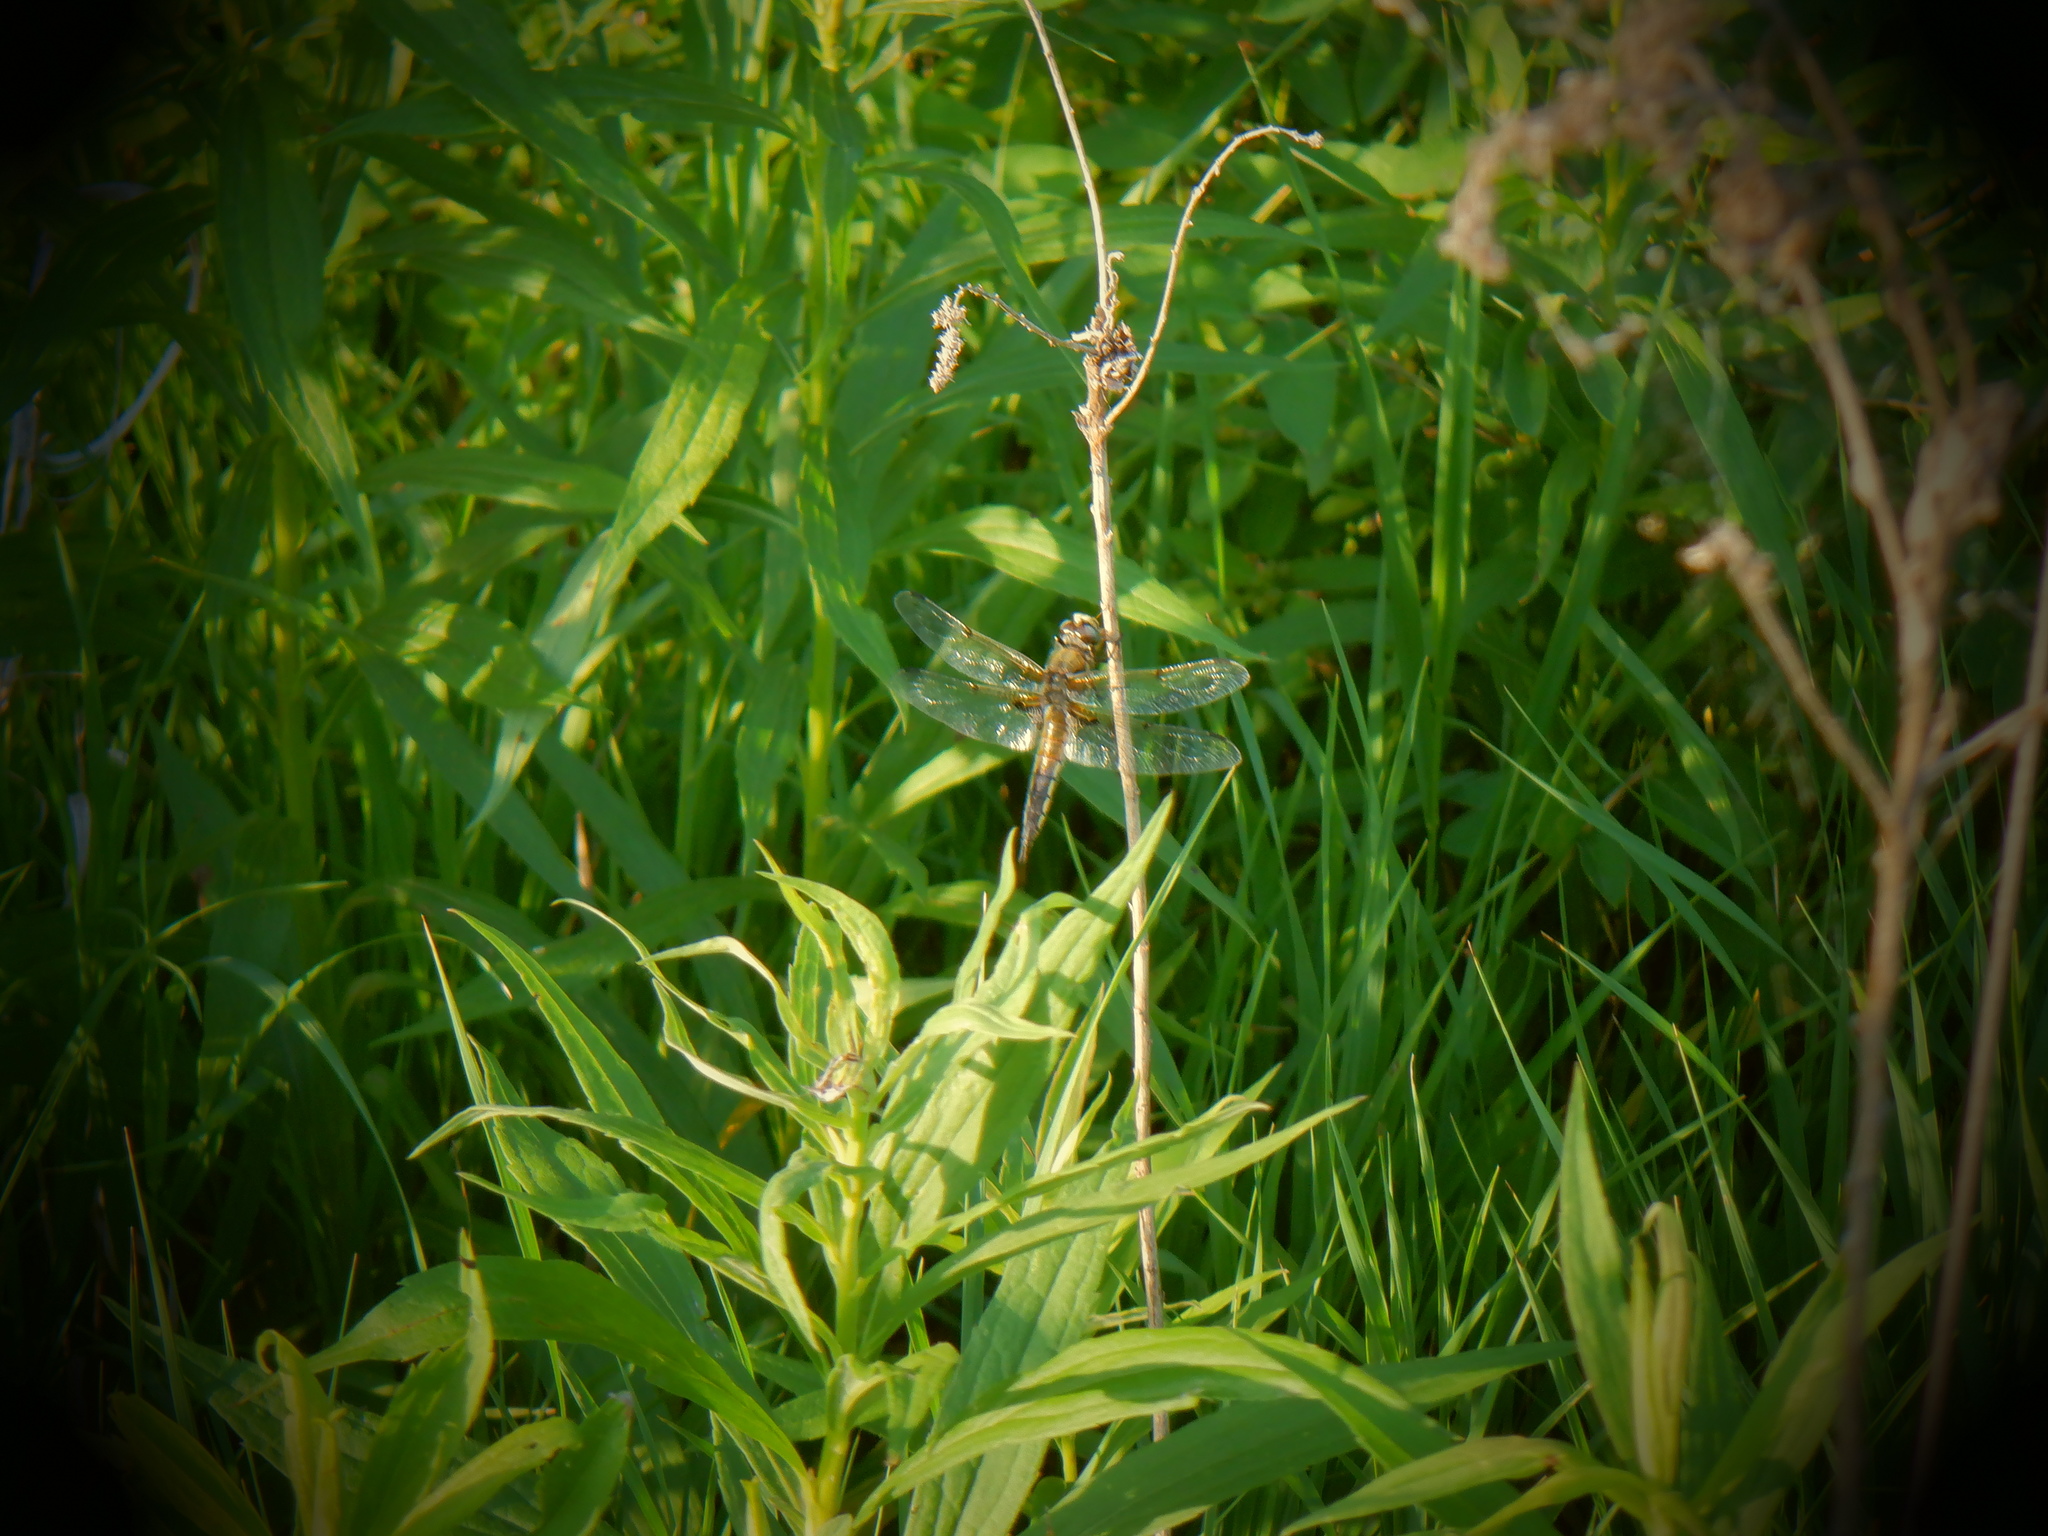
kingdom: Animalia
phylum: Arthropoda
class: Insecta
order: Odonata
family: Libellulidae
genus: Libellula
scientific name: Libellula quadrimaculata
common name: Four-spotted chaser
